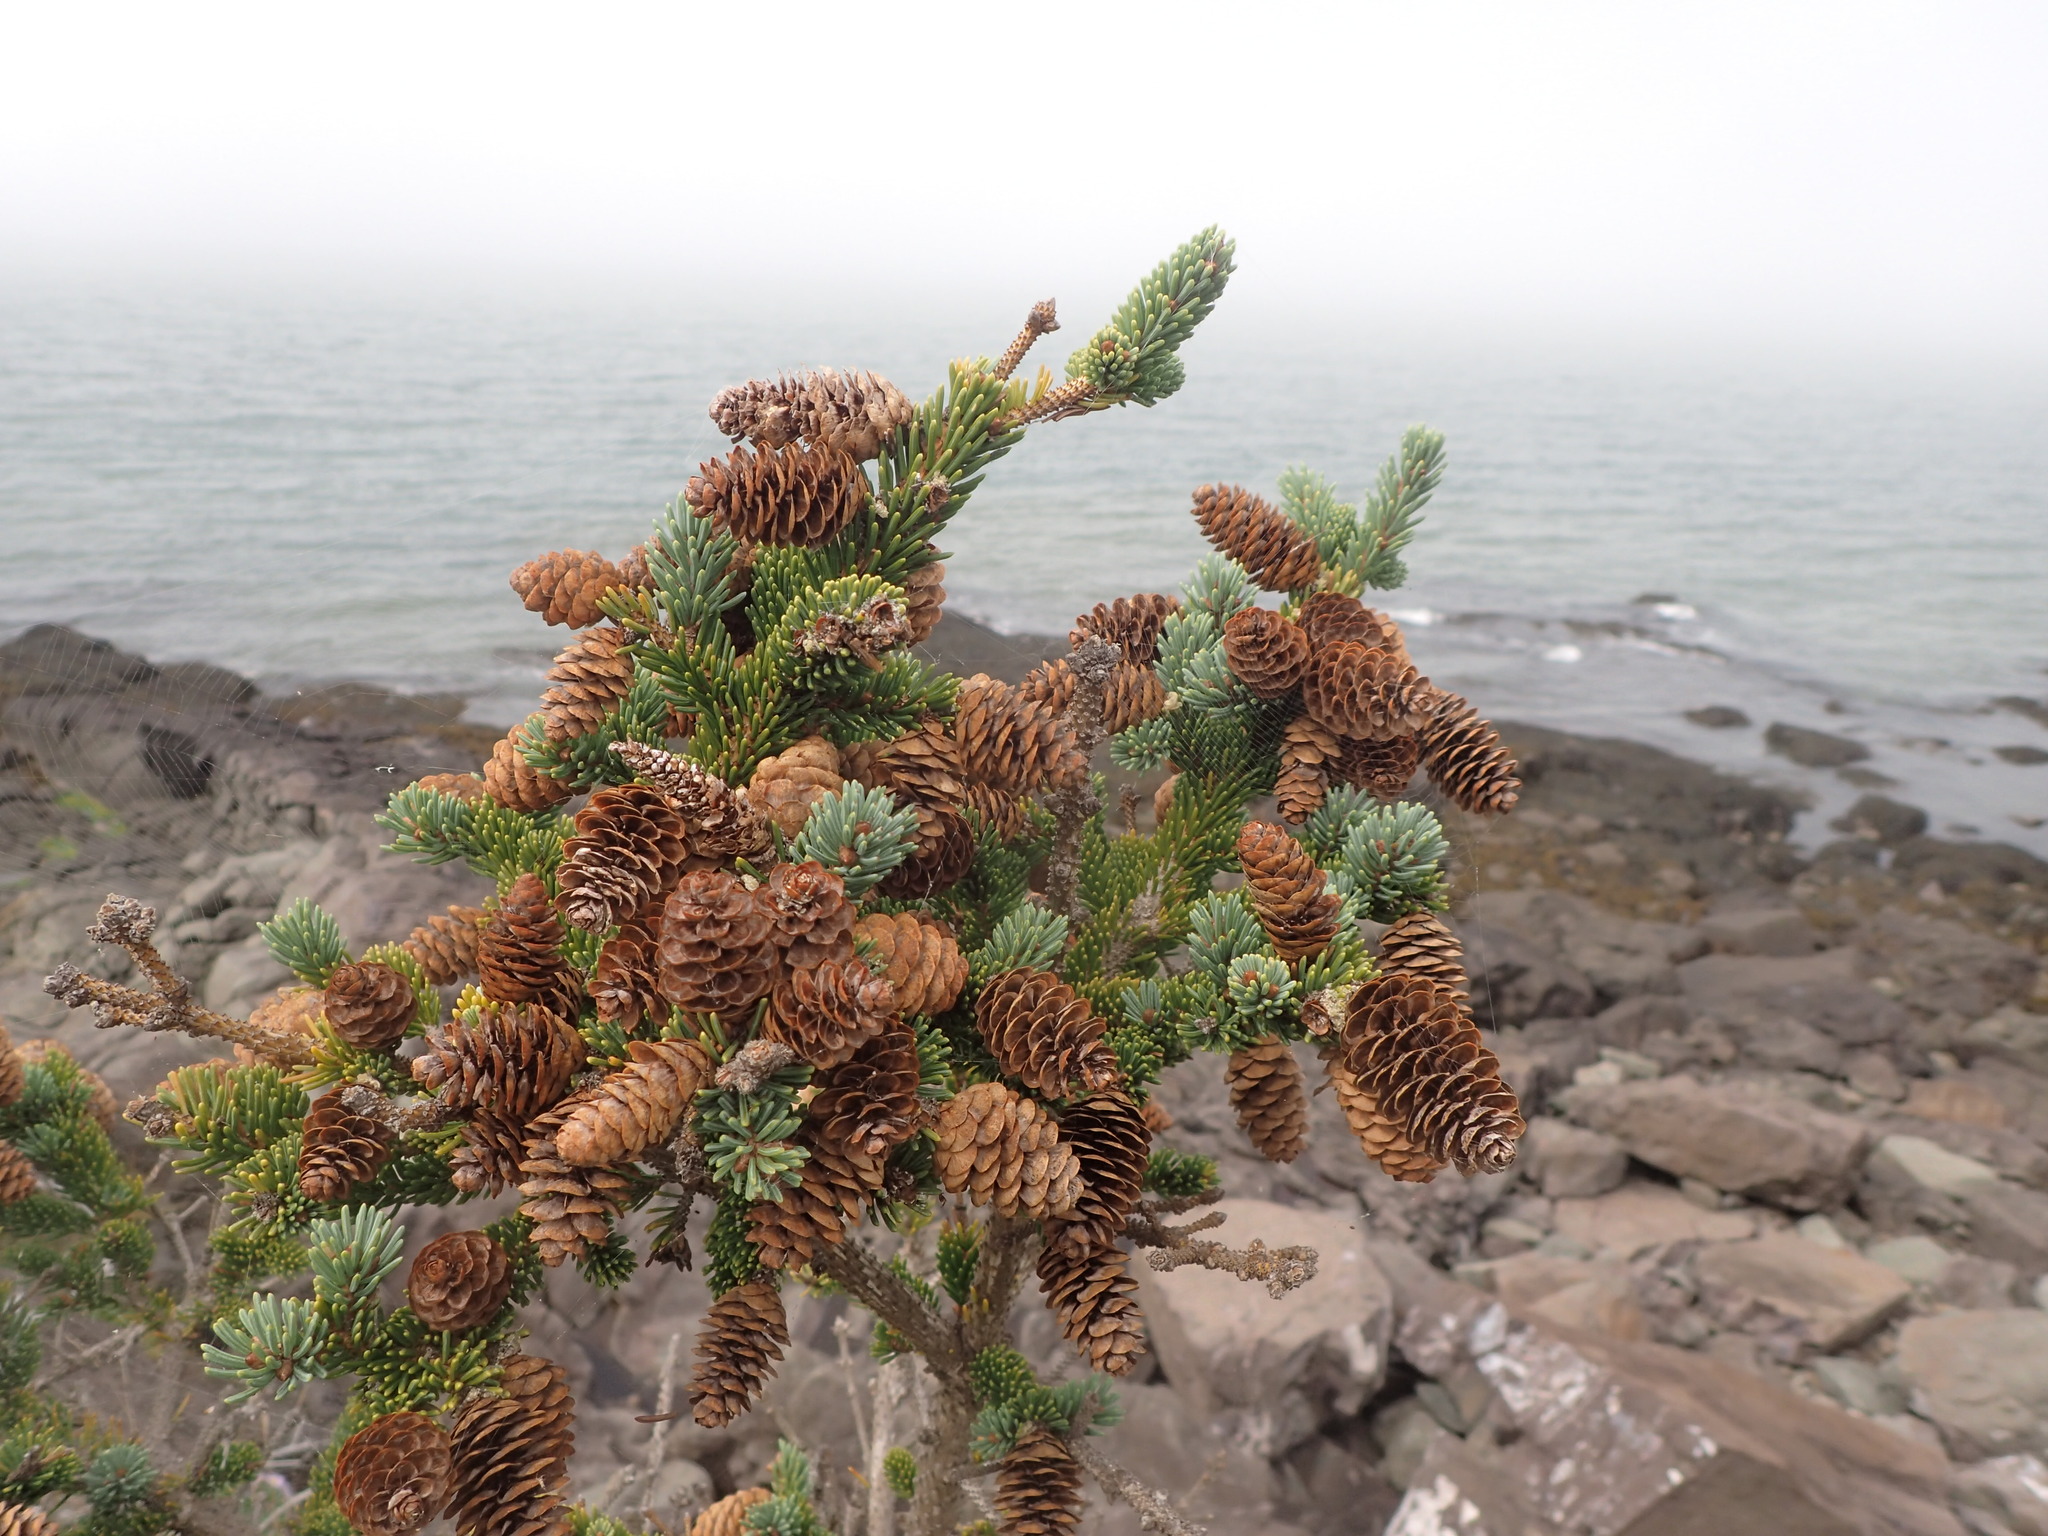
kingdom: Plantae
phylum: Tracheophyta
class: Pinopsida
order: Pinales
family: Pinaceae
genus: Picea
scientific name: Picea glauca
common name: White spruce
